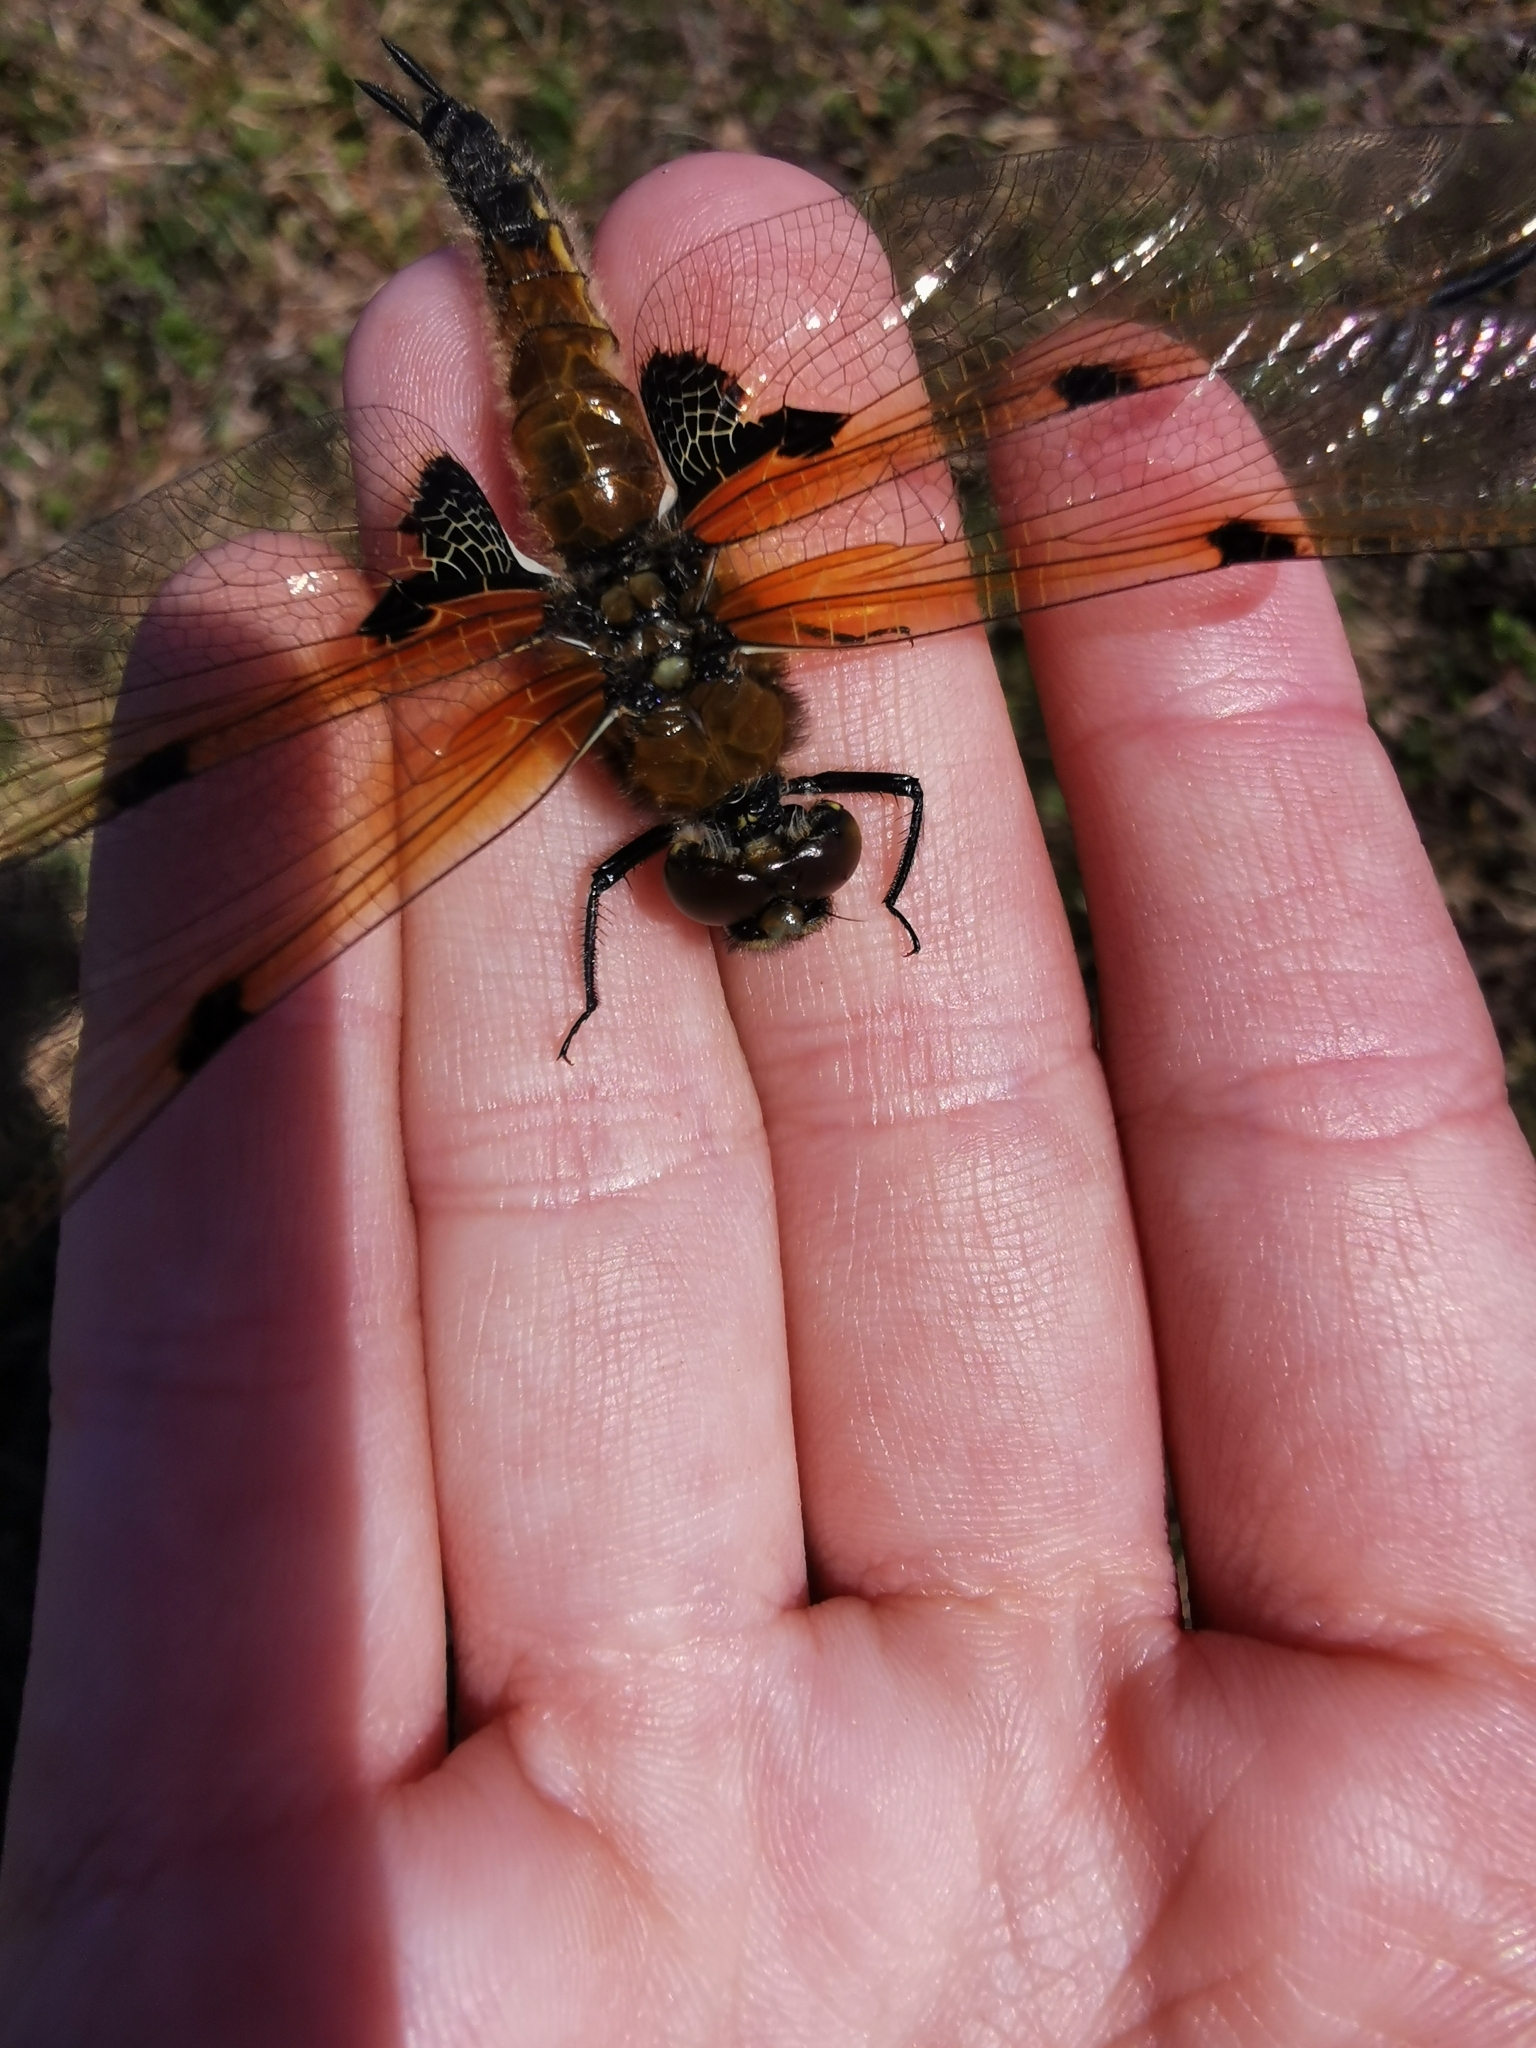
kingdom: Animalia
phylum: Arthropoda
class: Insecta
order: Odonata
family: Libellulidae
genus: Libellula
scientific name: Libellula quadrimaculata
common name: Four-spotted chaser
